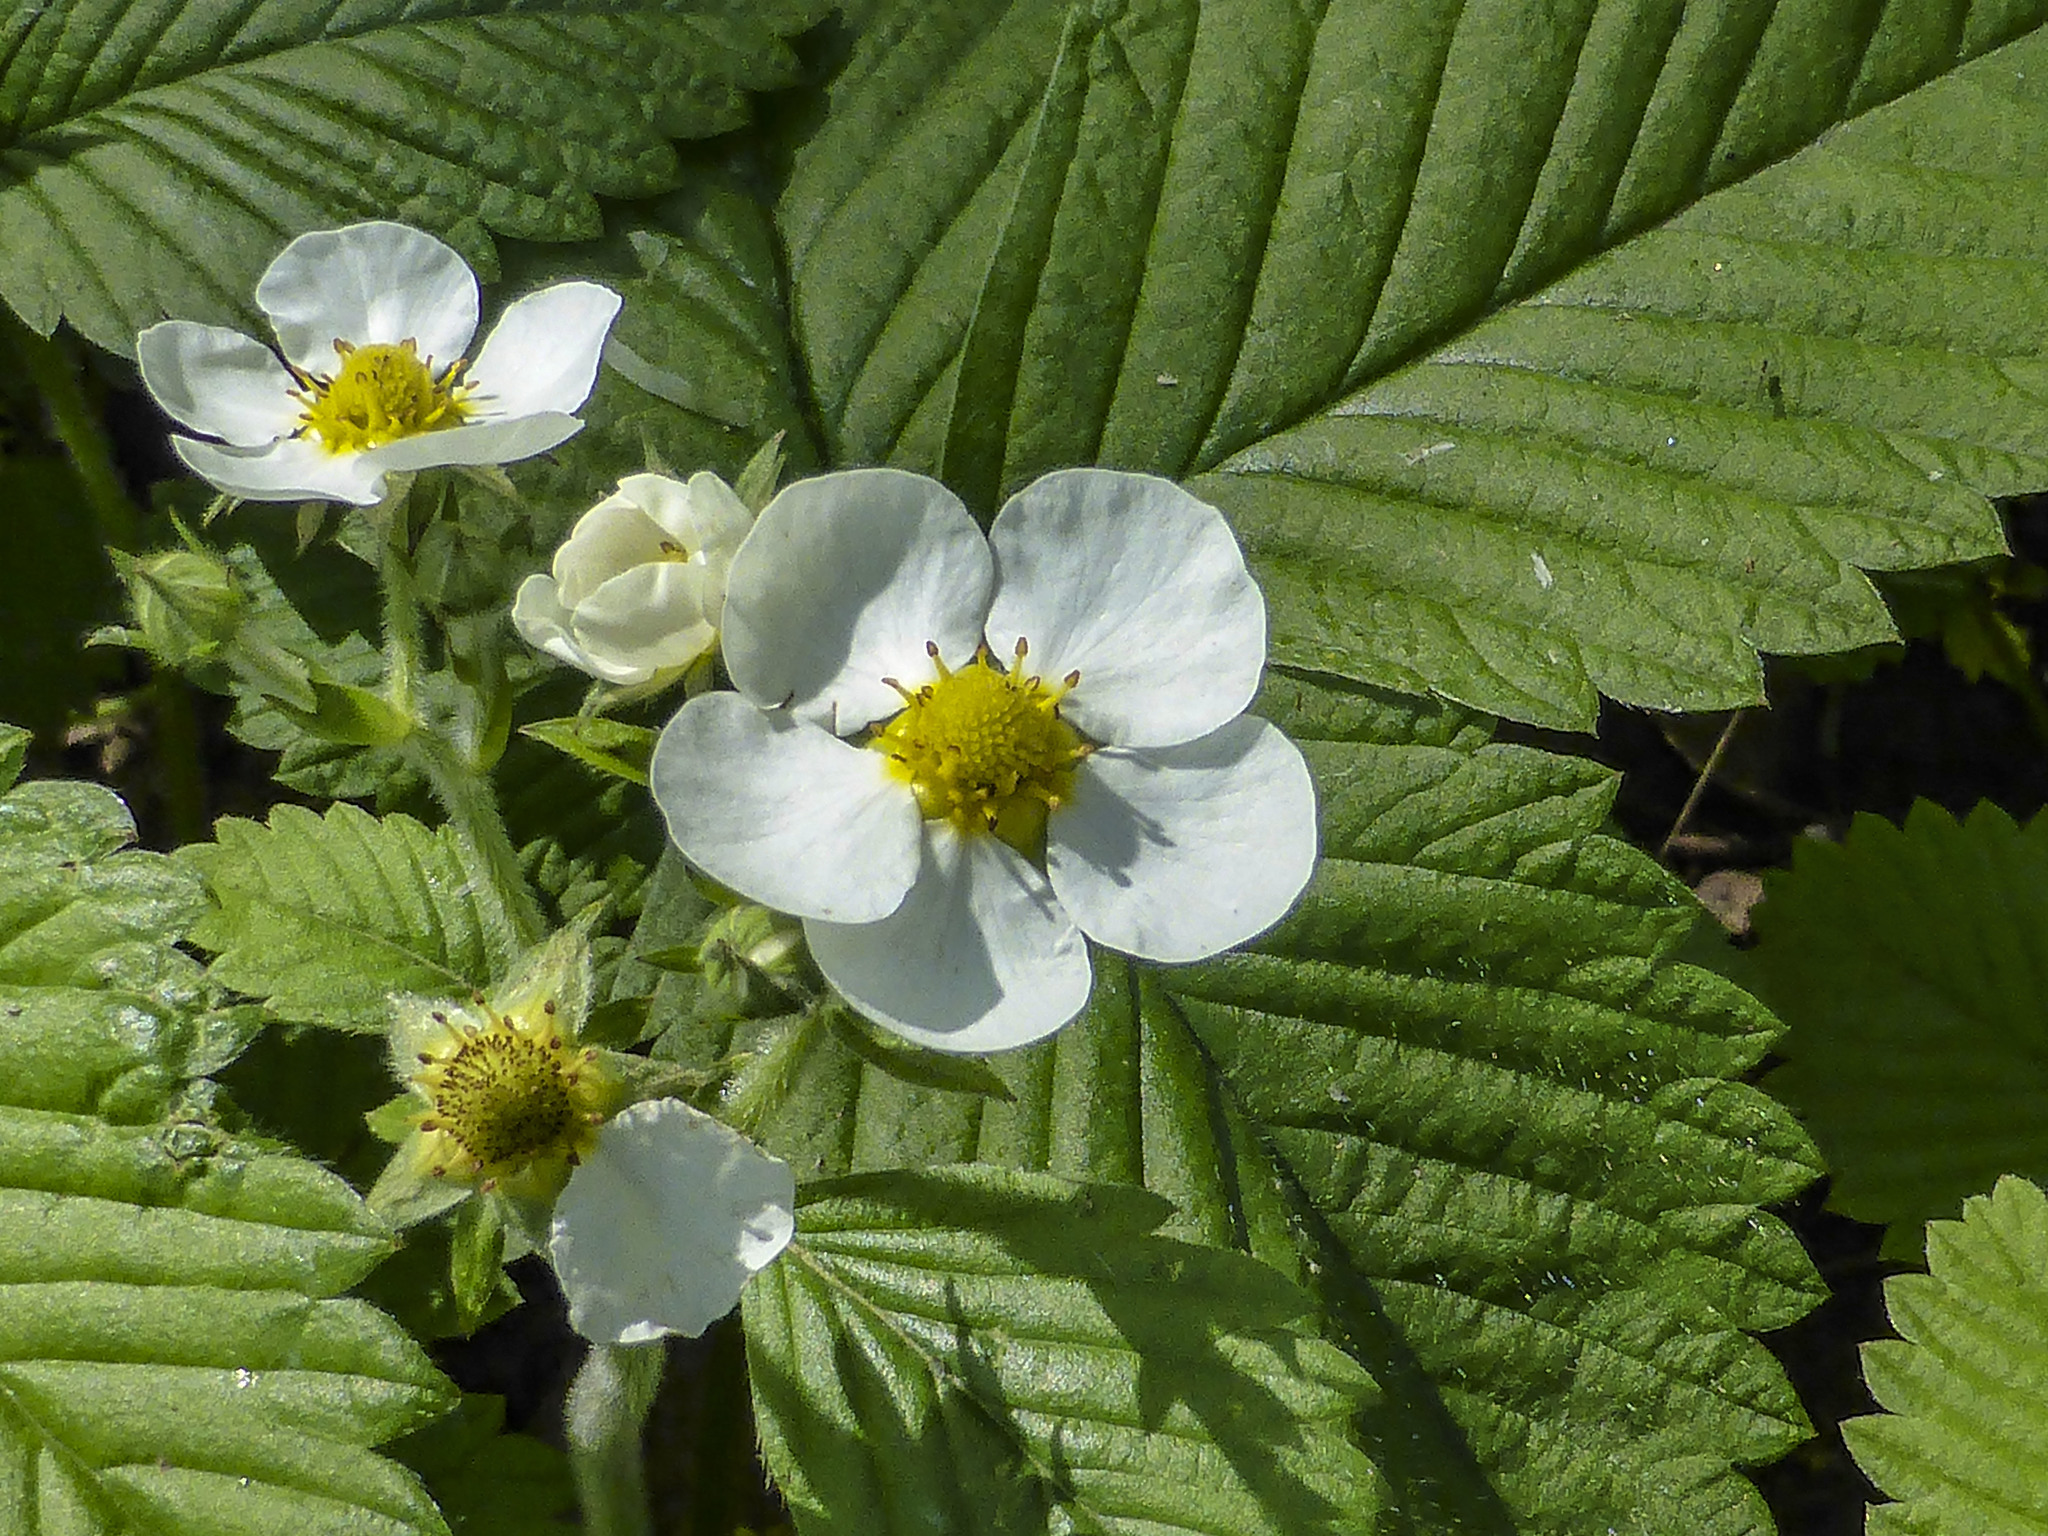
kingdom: Plantae
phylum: Tracheophyta
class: Magnoliopsida
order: Rosales
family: Rosaceae
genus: Fragaria
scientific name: Fragaria moschata
